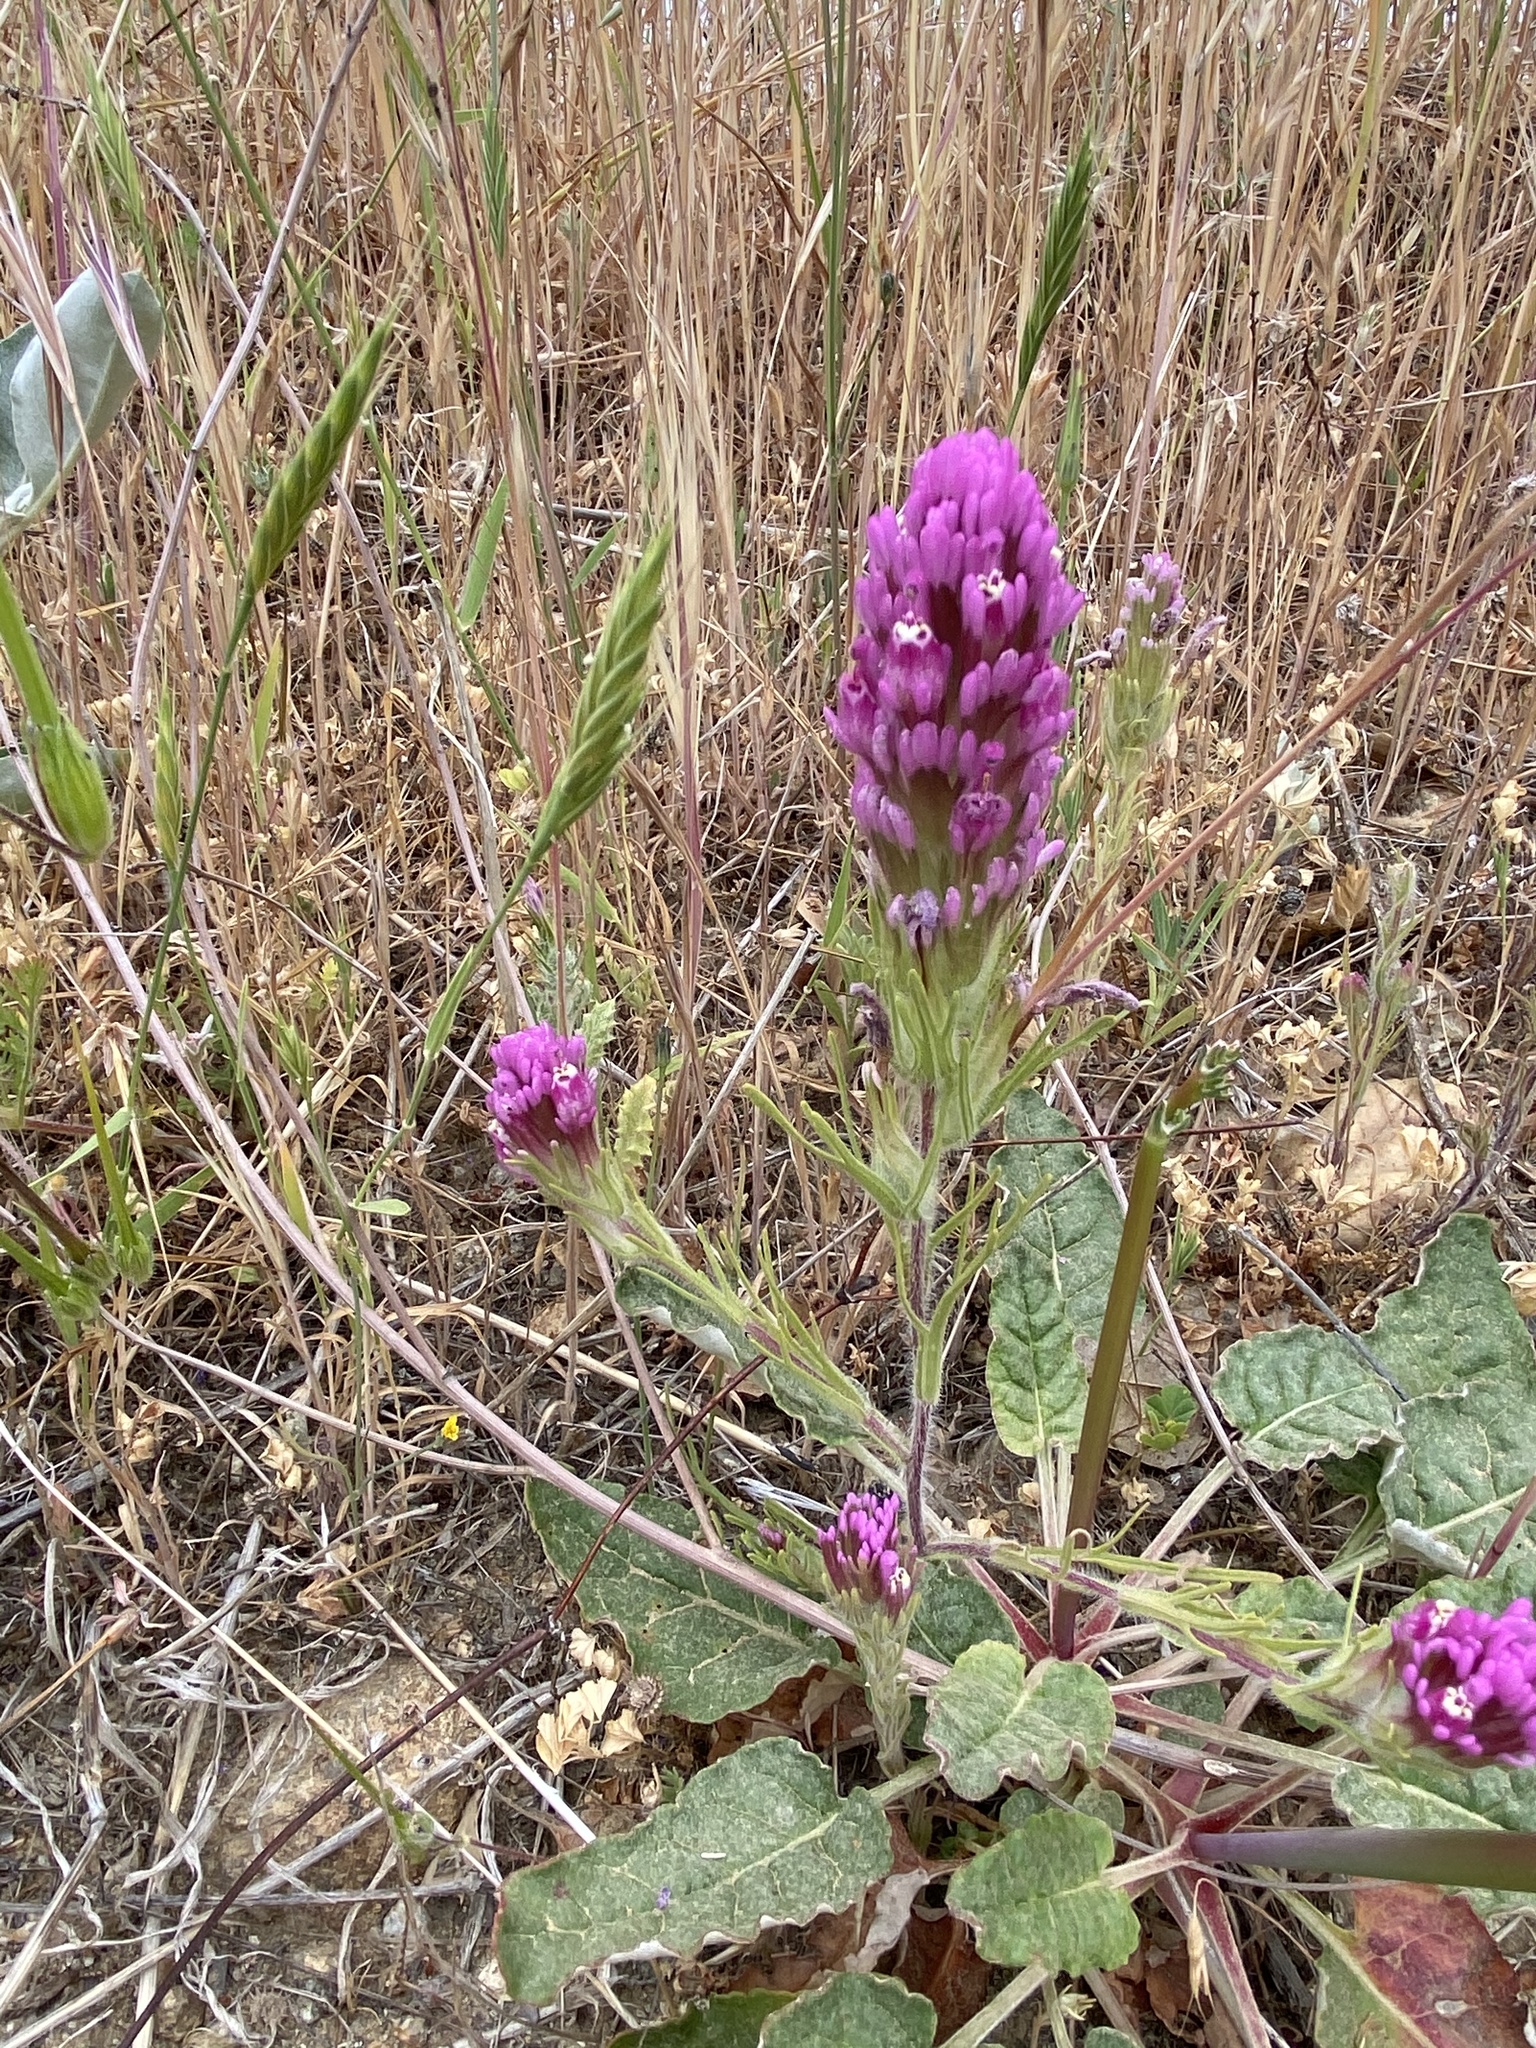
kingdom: Plantae
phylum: Tracheophyta
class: Magnoliopsida
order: Lamiales
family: Orobanchaceae
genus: Castilleja
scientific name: Castilleja exserta
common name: Purple owl-clover
